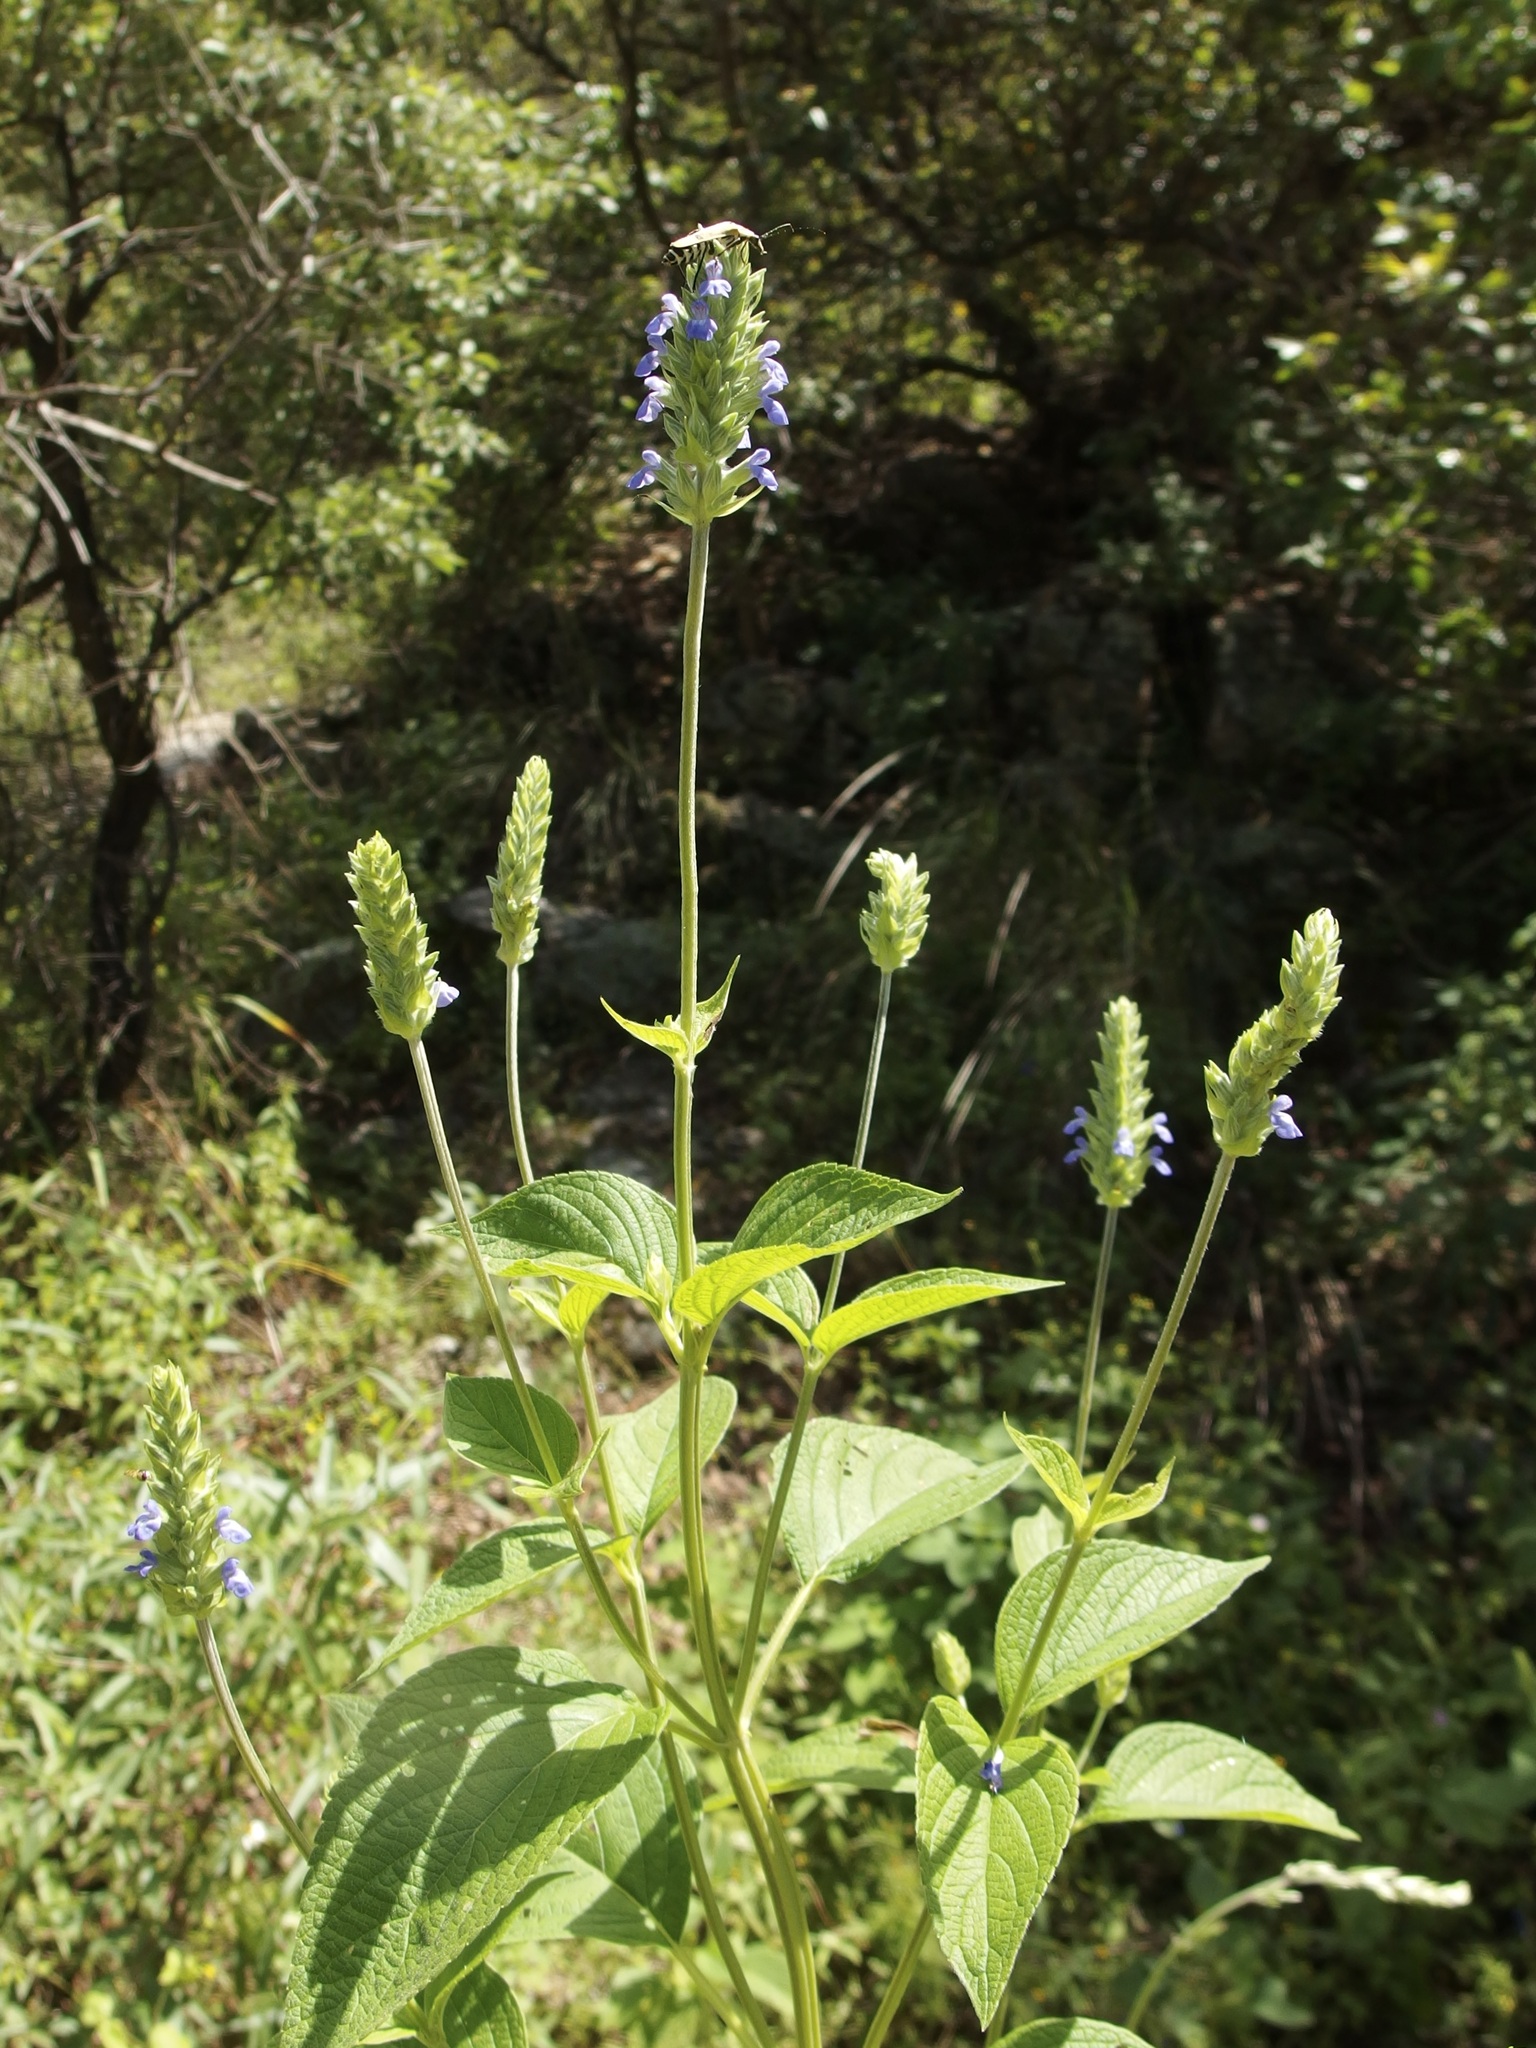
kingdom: Plantae
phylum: Tracheophyta
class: Magnoliopsida
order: Lamiales
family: Lamiaceae
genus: Salvia
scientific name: Salvia hispanica
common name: Chia
